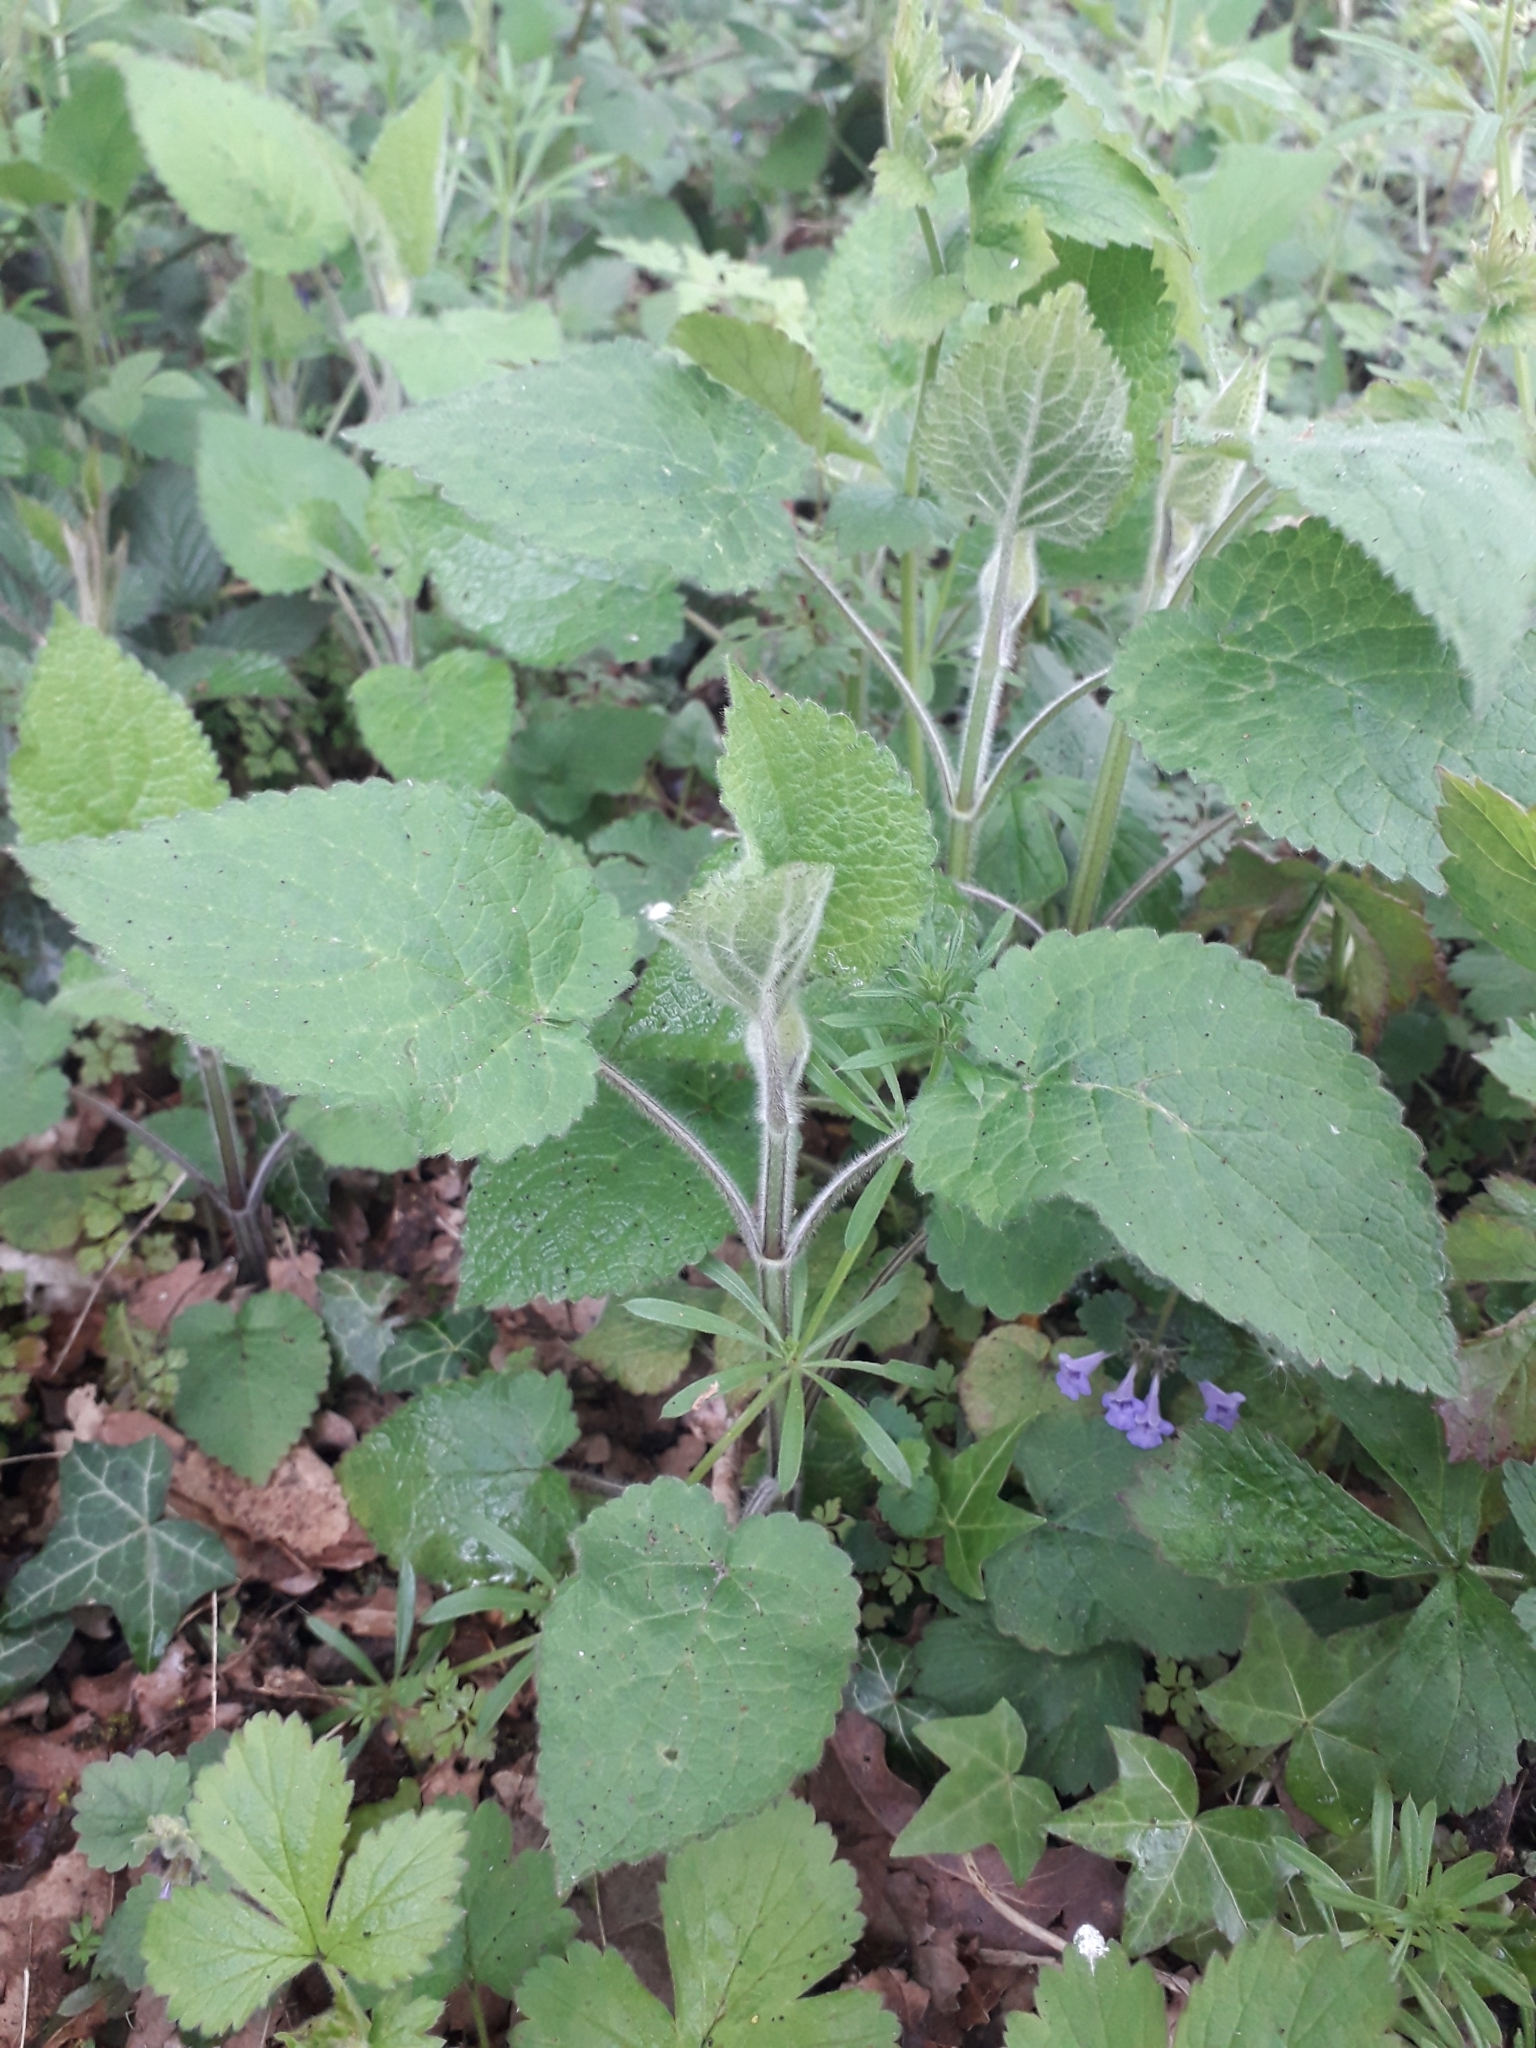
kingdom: Plantae
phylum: Tracheophyta
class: Magnoliopsida
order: Lamiales
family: Lamiaceae
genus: Stachys
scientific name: Stachys sylvatica
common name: Hedge woundwort
